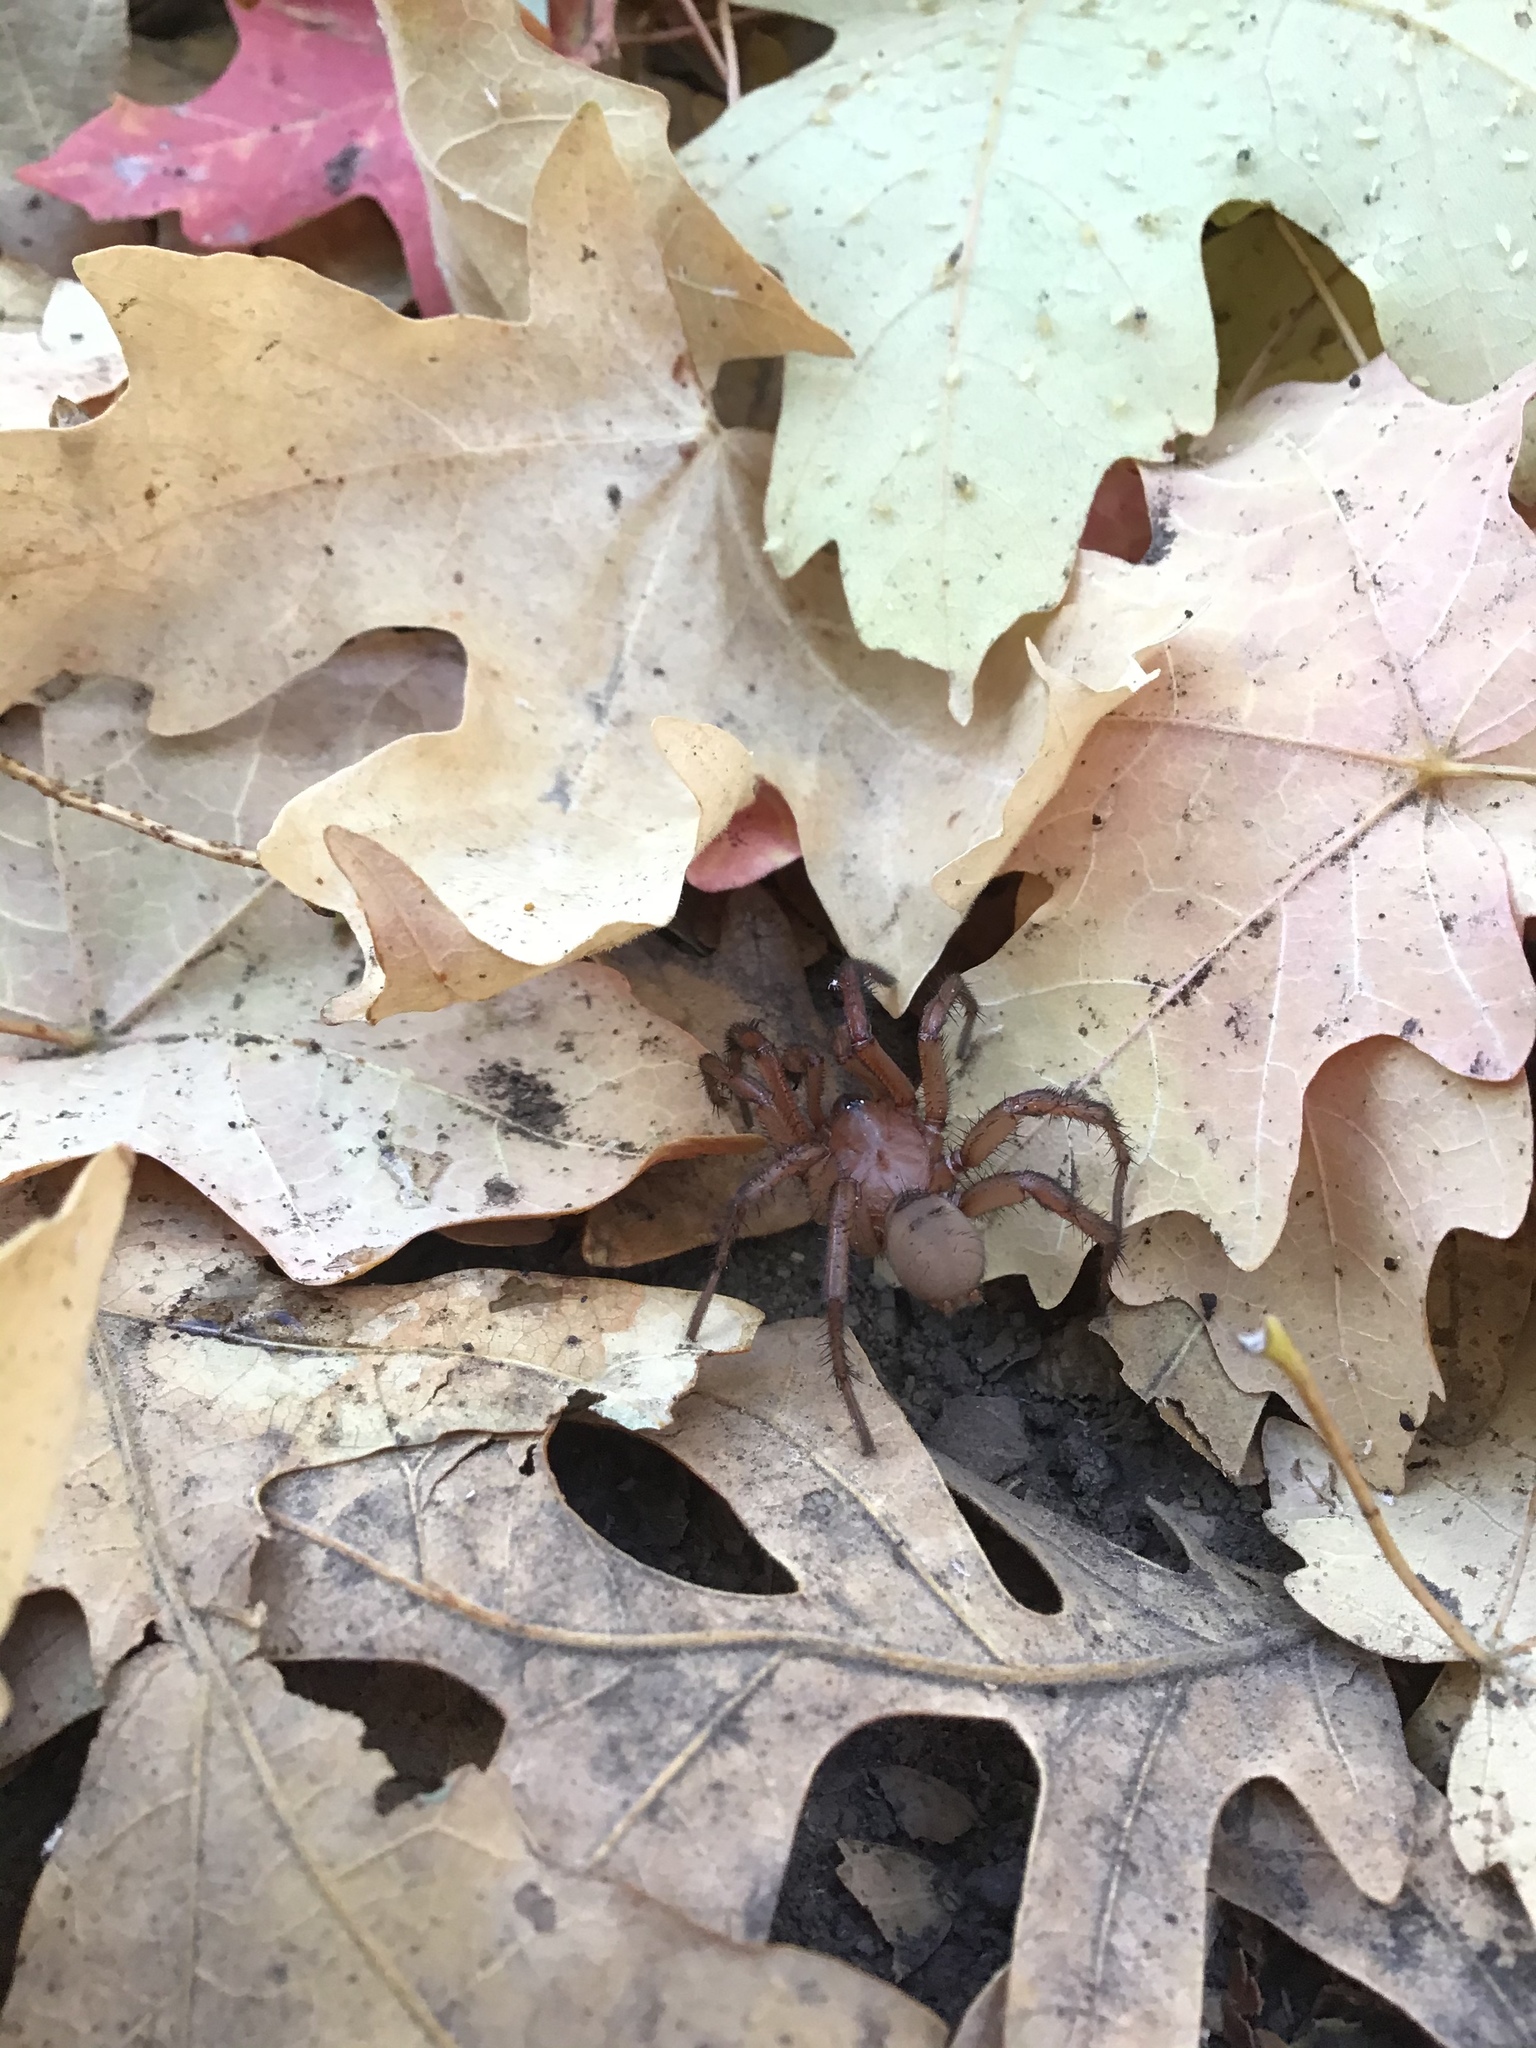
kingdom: Animalia
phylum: Arthropoda
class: Arachnida
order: Araneae
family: Antrodiaetidae
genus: Antrodiaetus
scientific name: Antrodiaetus montanus
